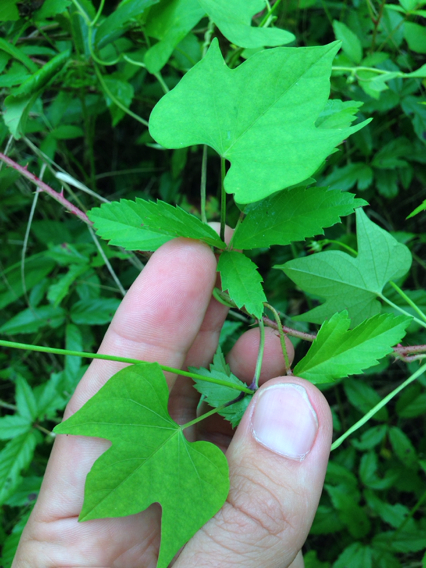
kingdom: Plantae
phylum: Tracheophyta
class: Magnoliopsida
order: Solanales
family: Convolvulaceae
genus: Ipomoea
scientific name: Ipomoea hederifolia
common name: Ivy-leaf morning-glory
